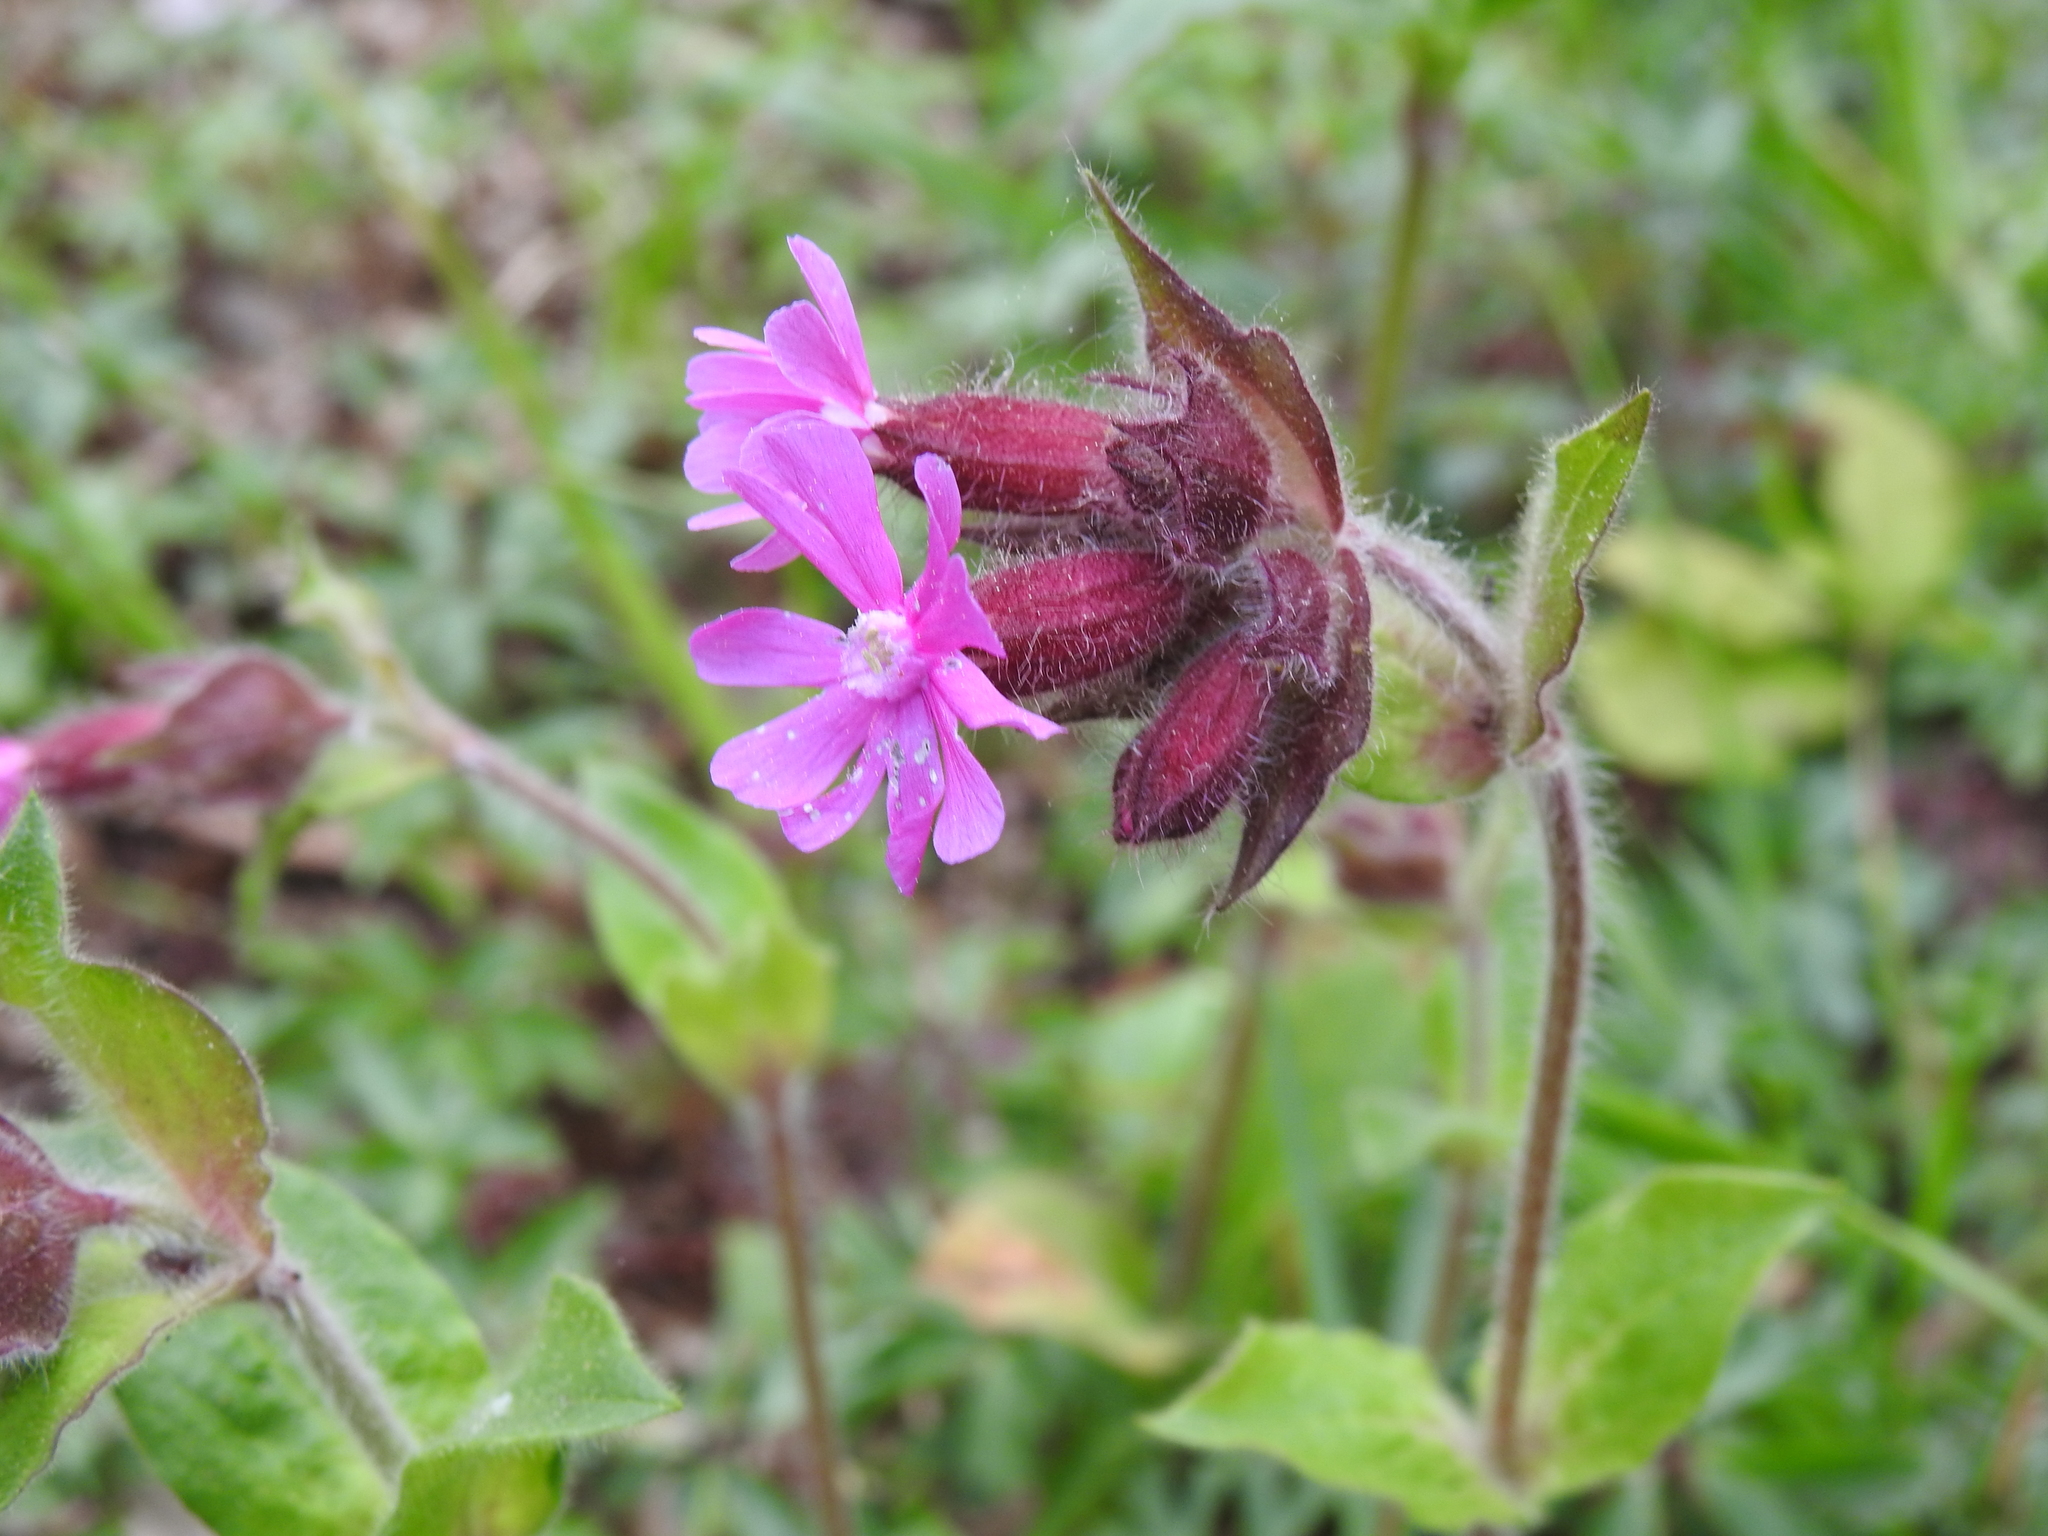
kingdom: Plantae
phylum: Tracheophyta
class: Magnoliopsida
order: Caryophyllales
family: Caryophyllaceae
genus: Silene
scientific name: Silene dioica
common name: Red campion
